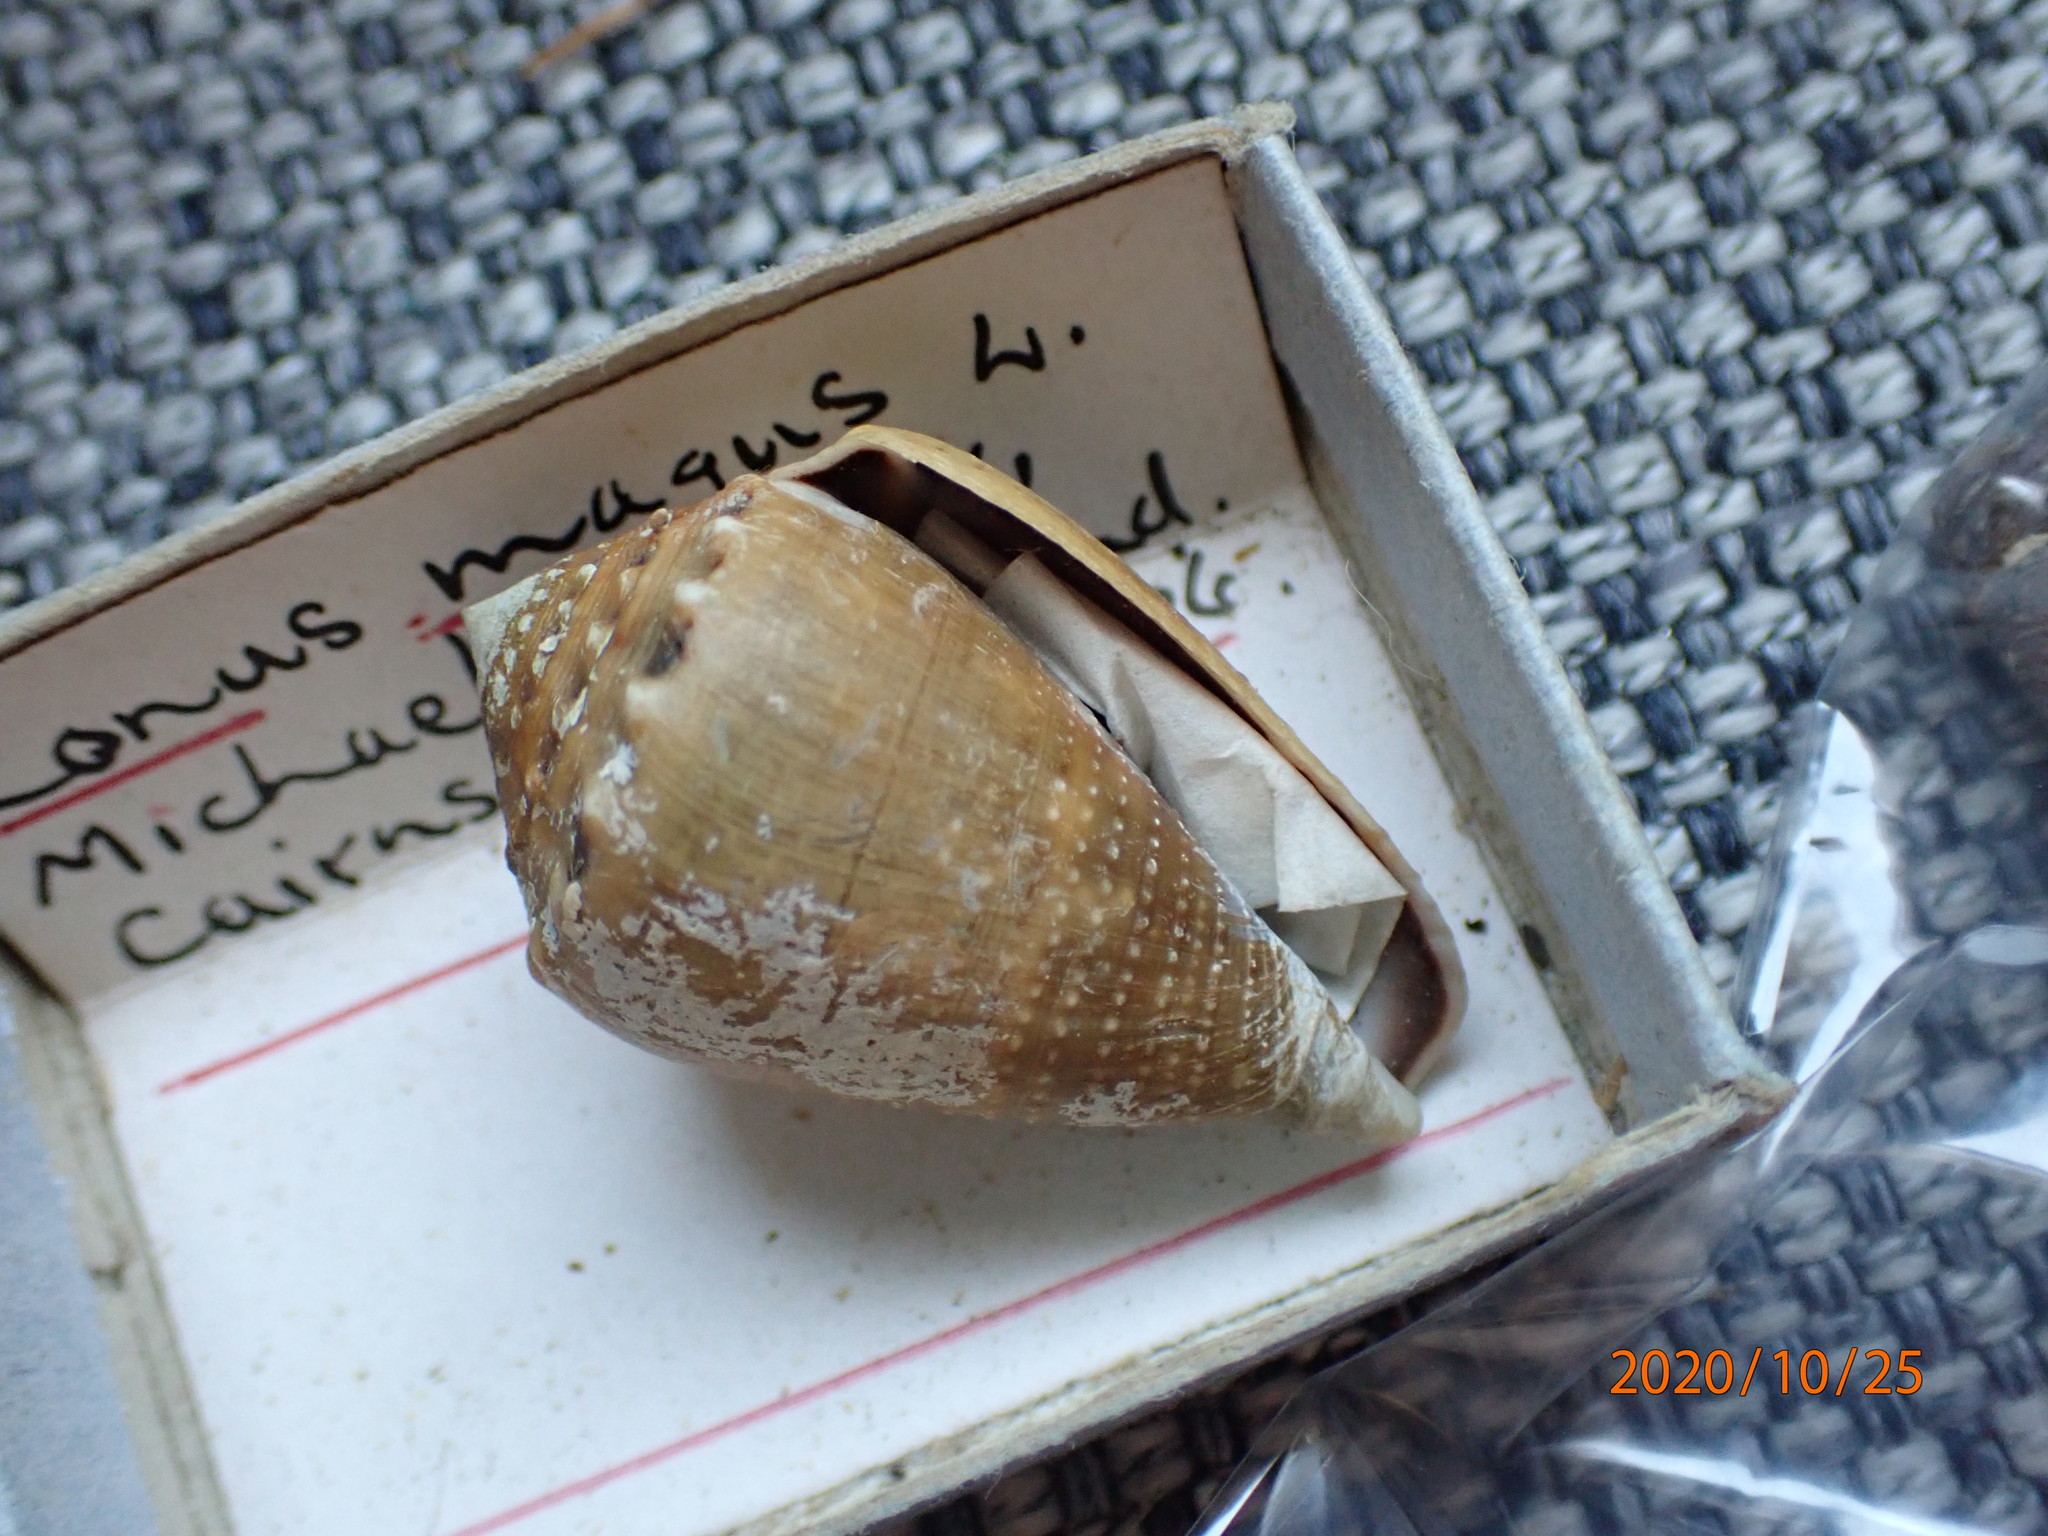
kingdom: Animalia
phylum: Mollusca
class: Gastropoda
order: Neogastropoda
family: Conidae
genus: Conus
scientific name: Conus coronatus
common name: Coronated cone
